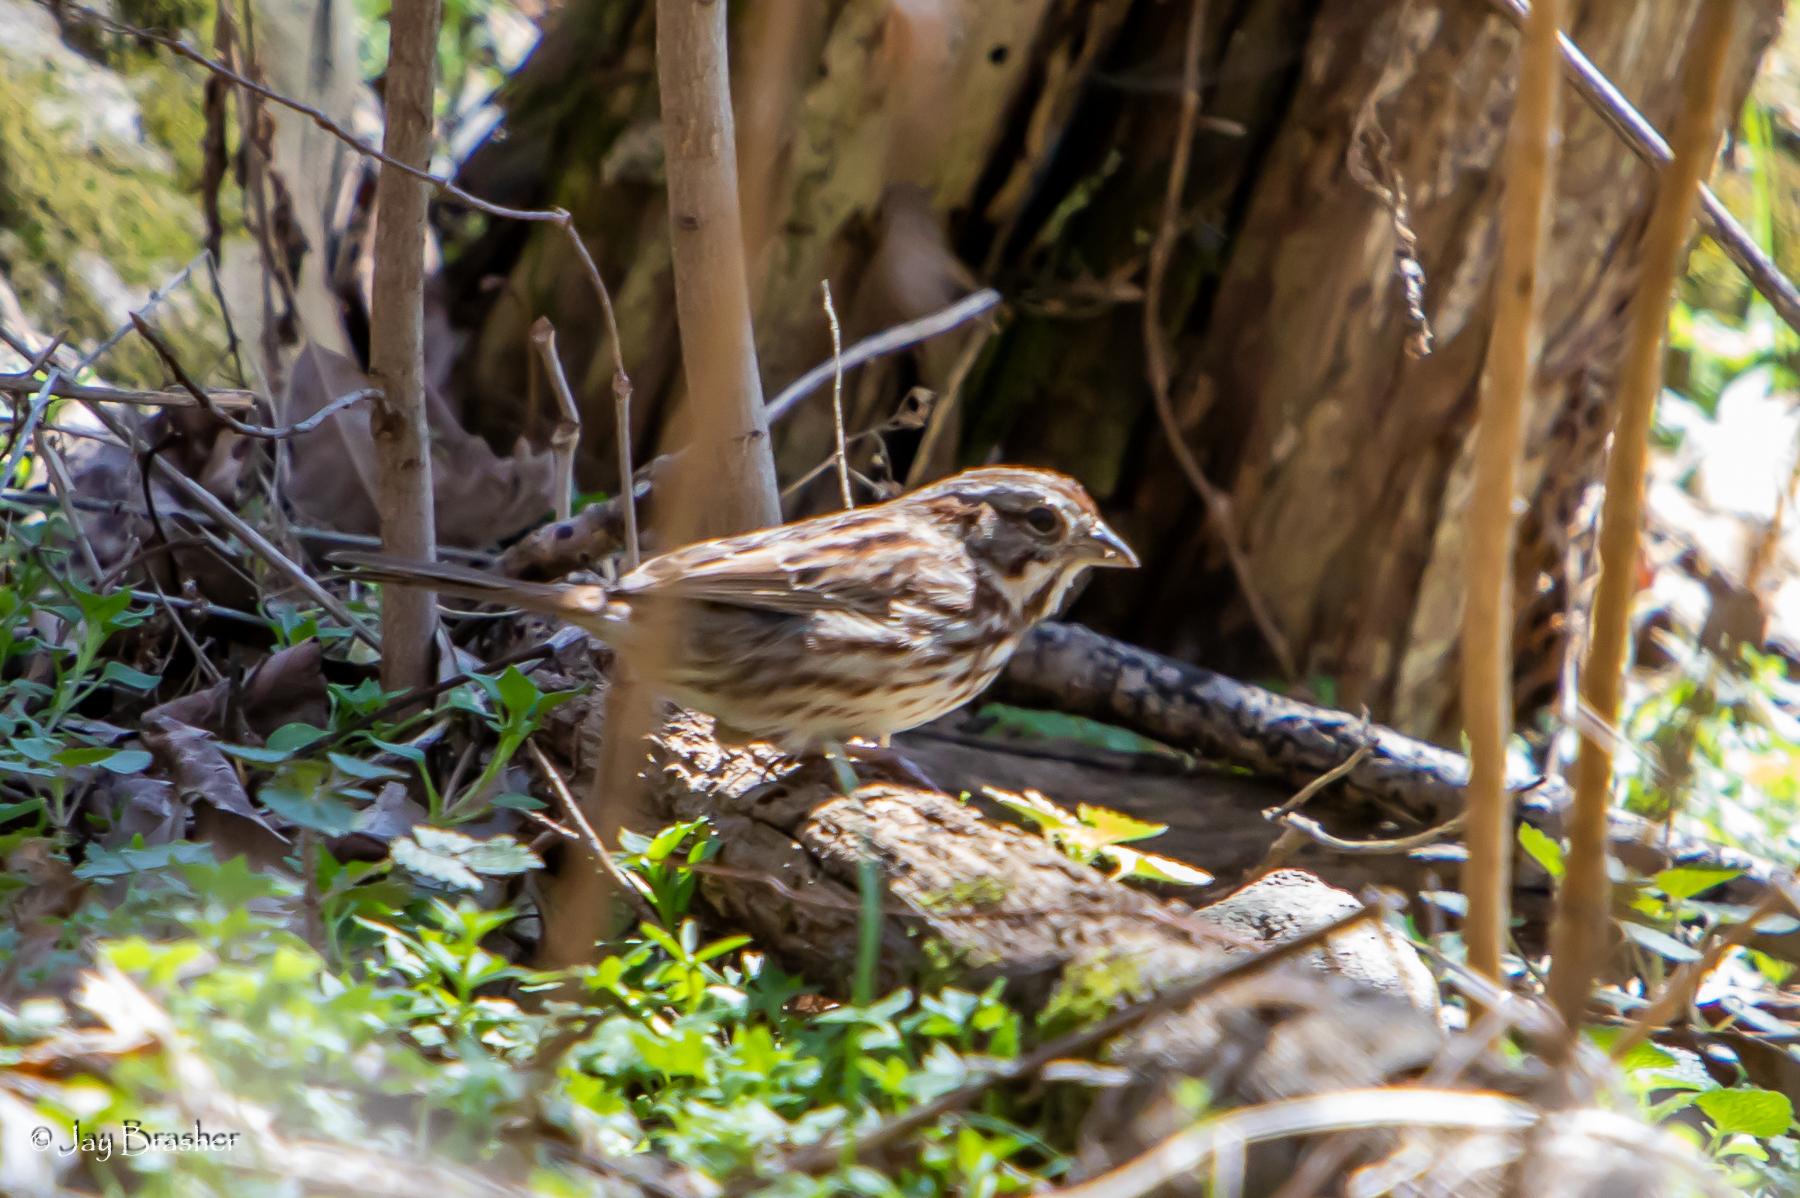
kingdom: Animalia
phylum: Chordata
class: Aves
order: Passeriformes
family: Passerellidae
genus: Melospiza
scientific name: Melospiza melodia
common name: Song sparrow
